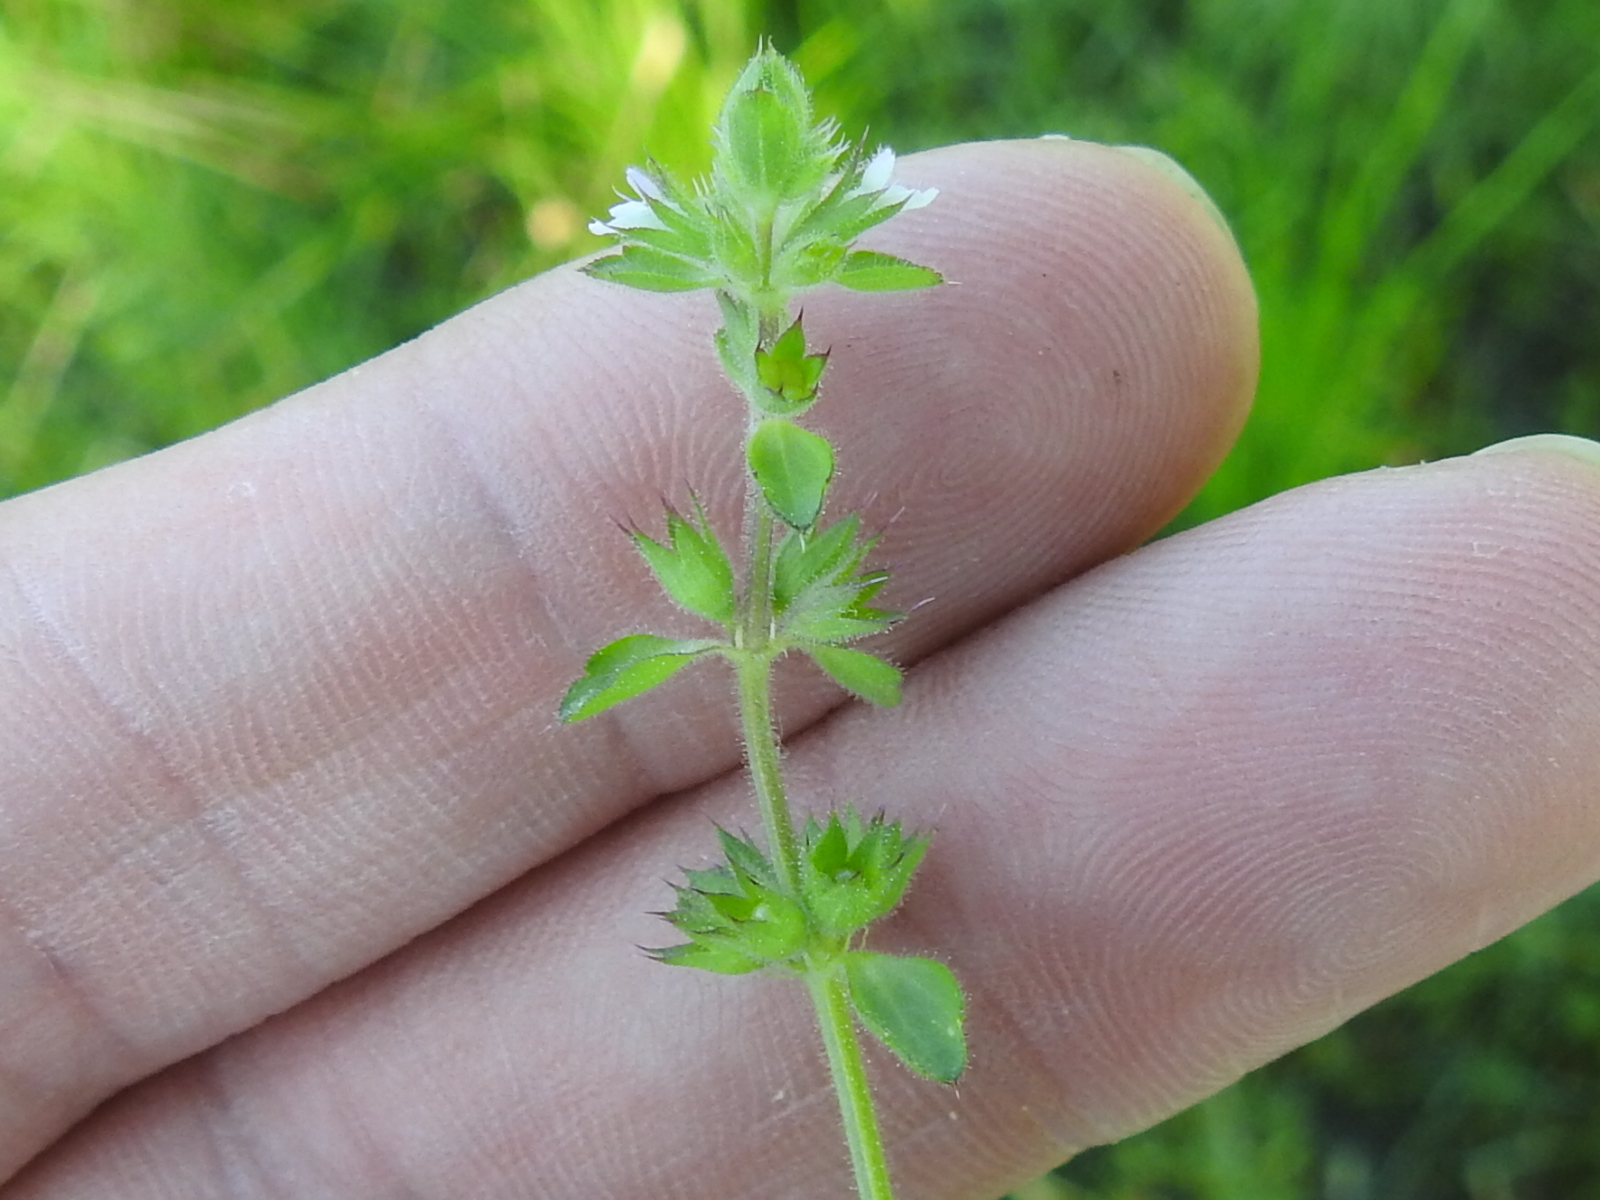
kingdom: Plantae
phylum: Tracheophyta
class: Magnoliopsida
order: Lamiales
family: Lamiaceae
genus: Stachys
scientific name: Stachys
